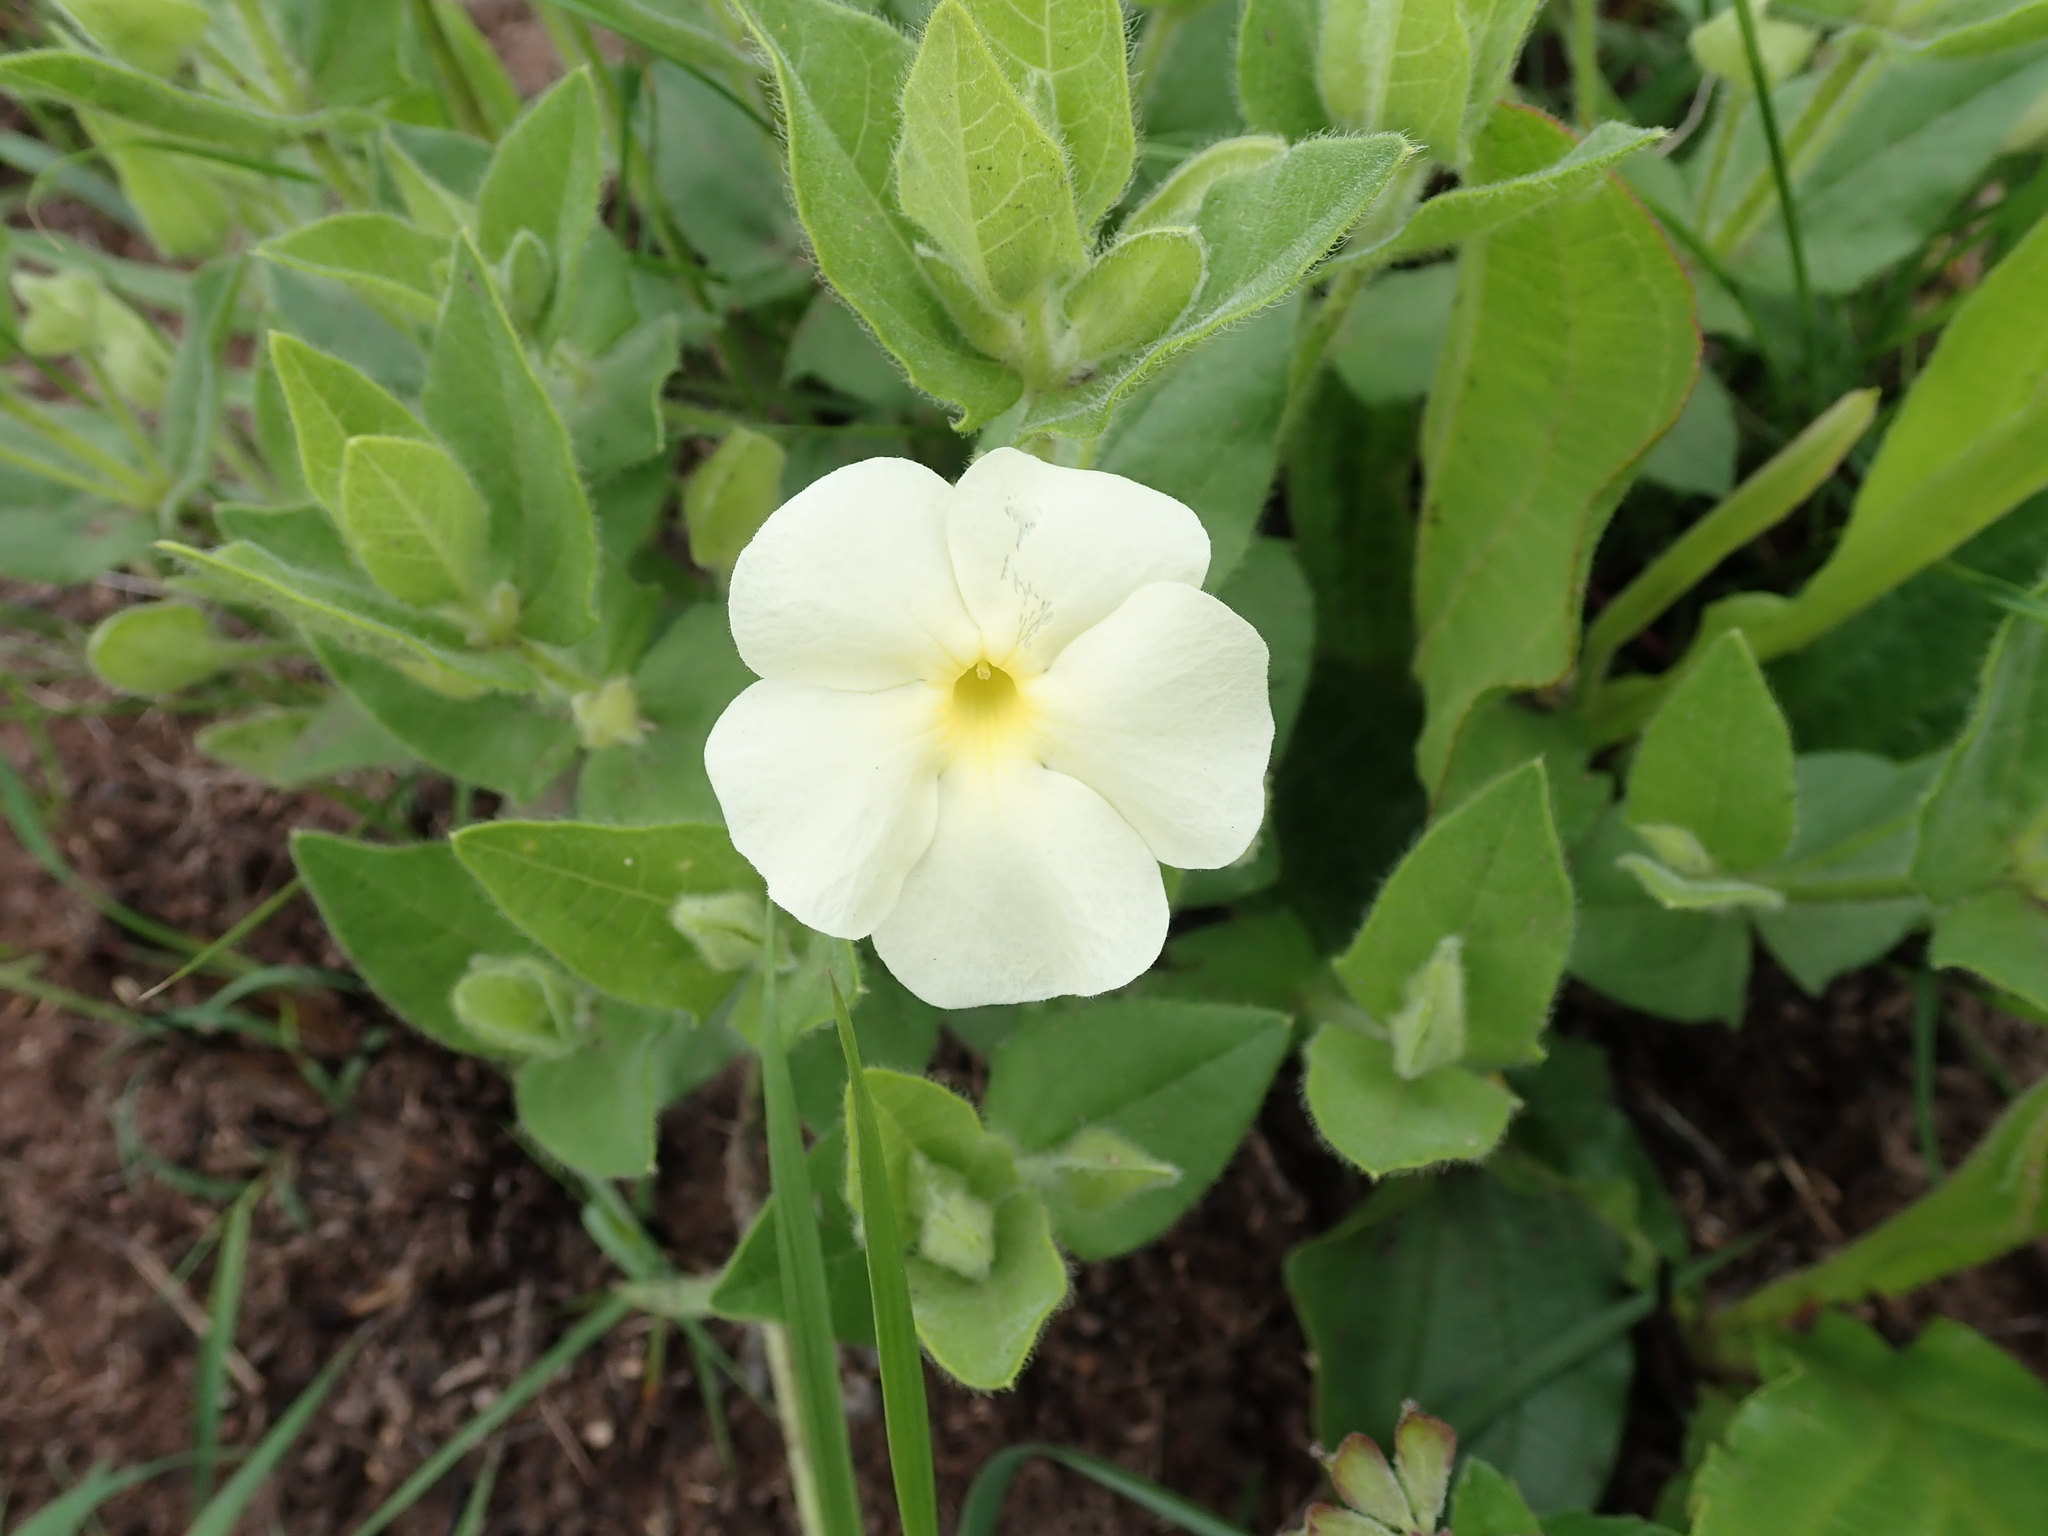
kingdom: Plantae
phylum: Tracheophyta
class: Magnoliopsida
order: Lamiales
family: Acanthaceae
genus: Thunbergia
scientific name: Thunbergia atriplicifolia
